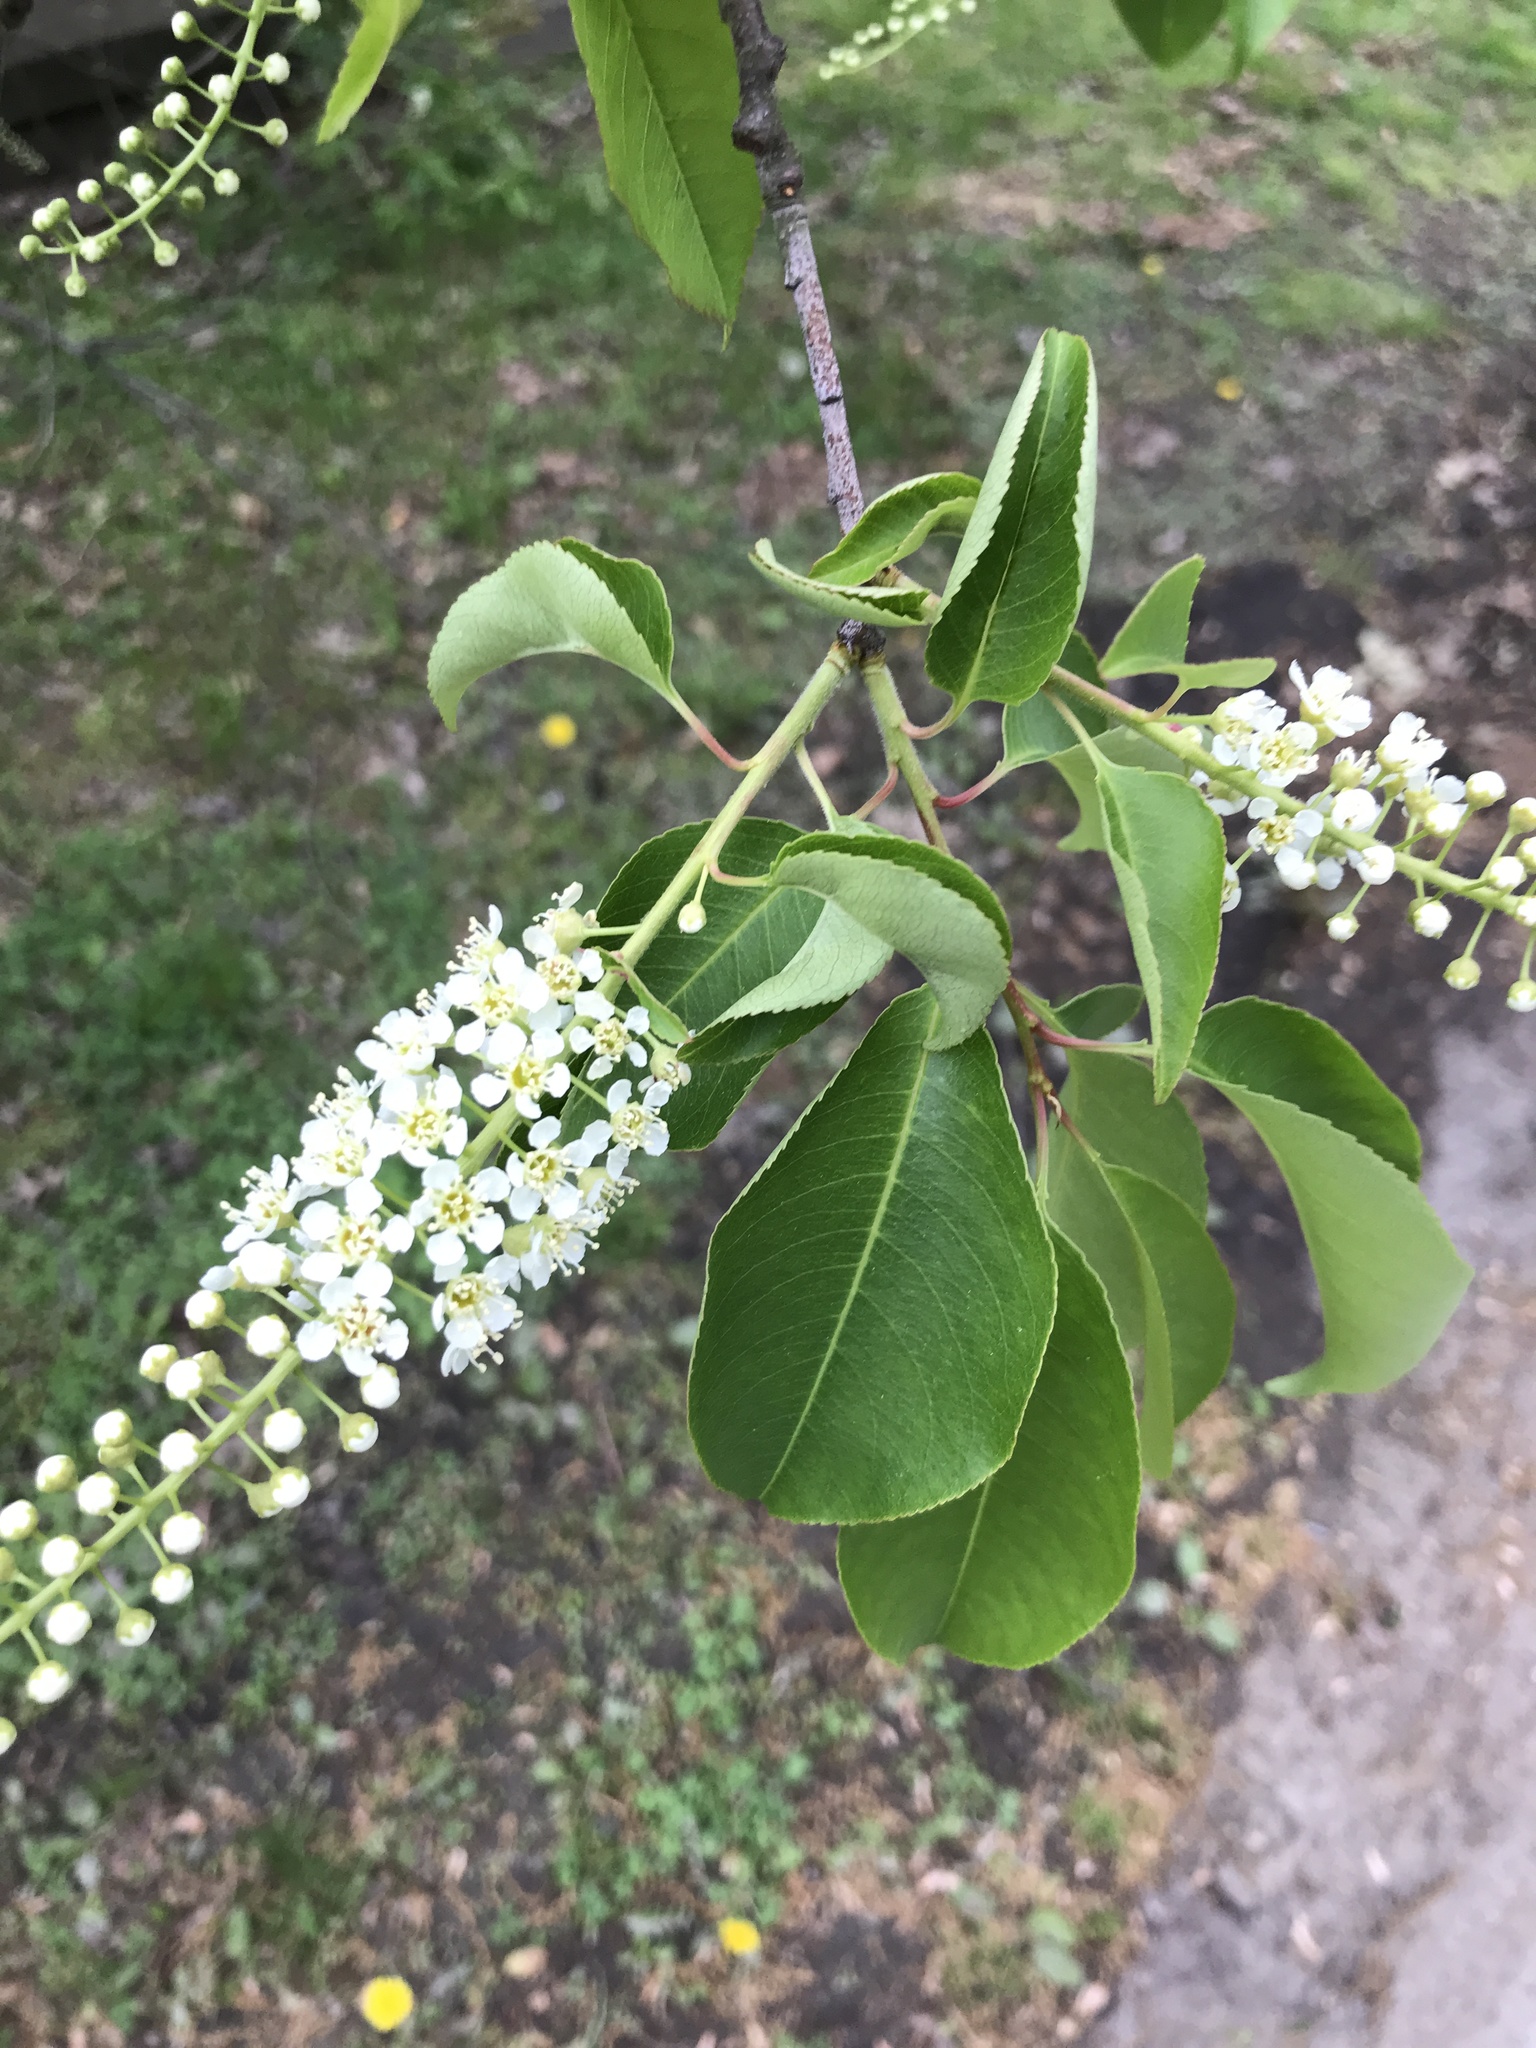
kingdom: Plantae
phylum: Tracheophyta
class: Magnoliopsida
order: Rosales
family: Rosaceae
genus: Prunus
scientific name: Prunus serotina
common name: Black cherry
